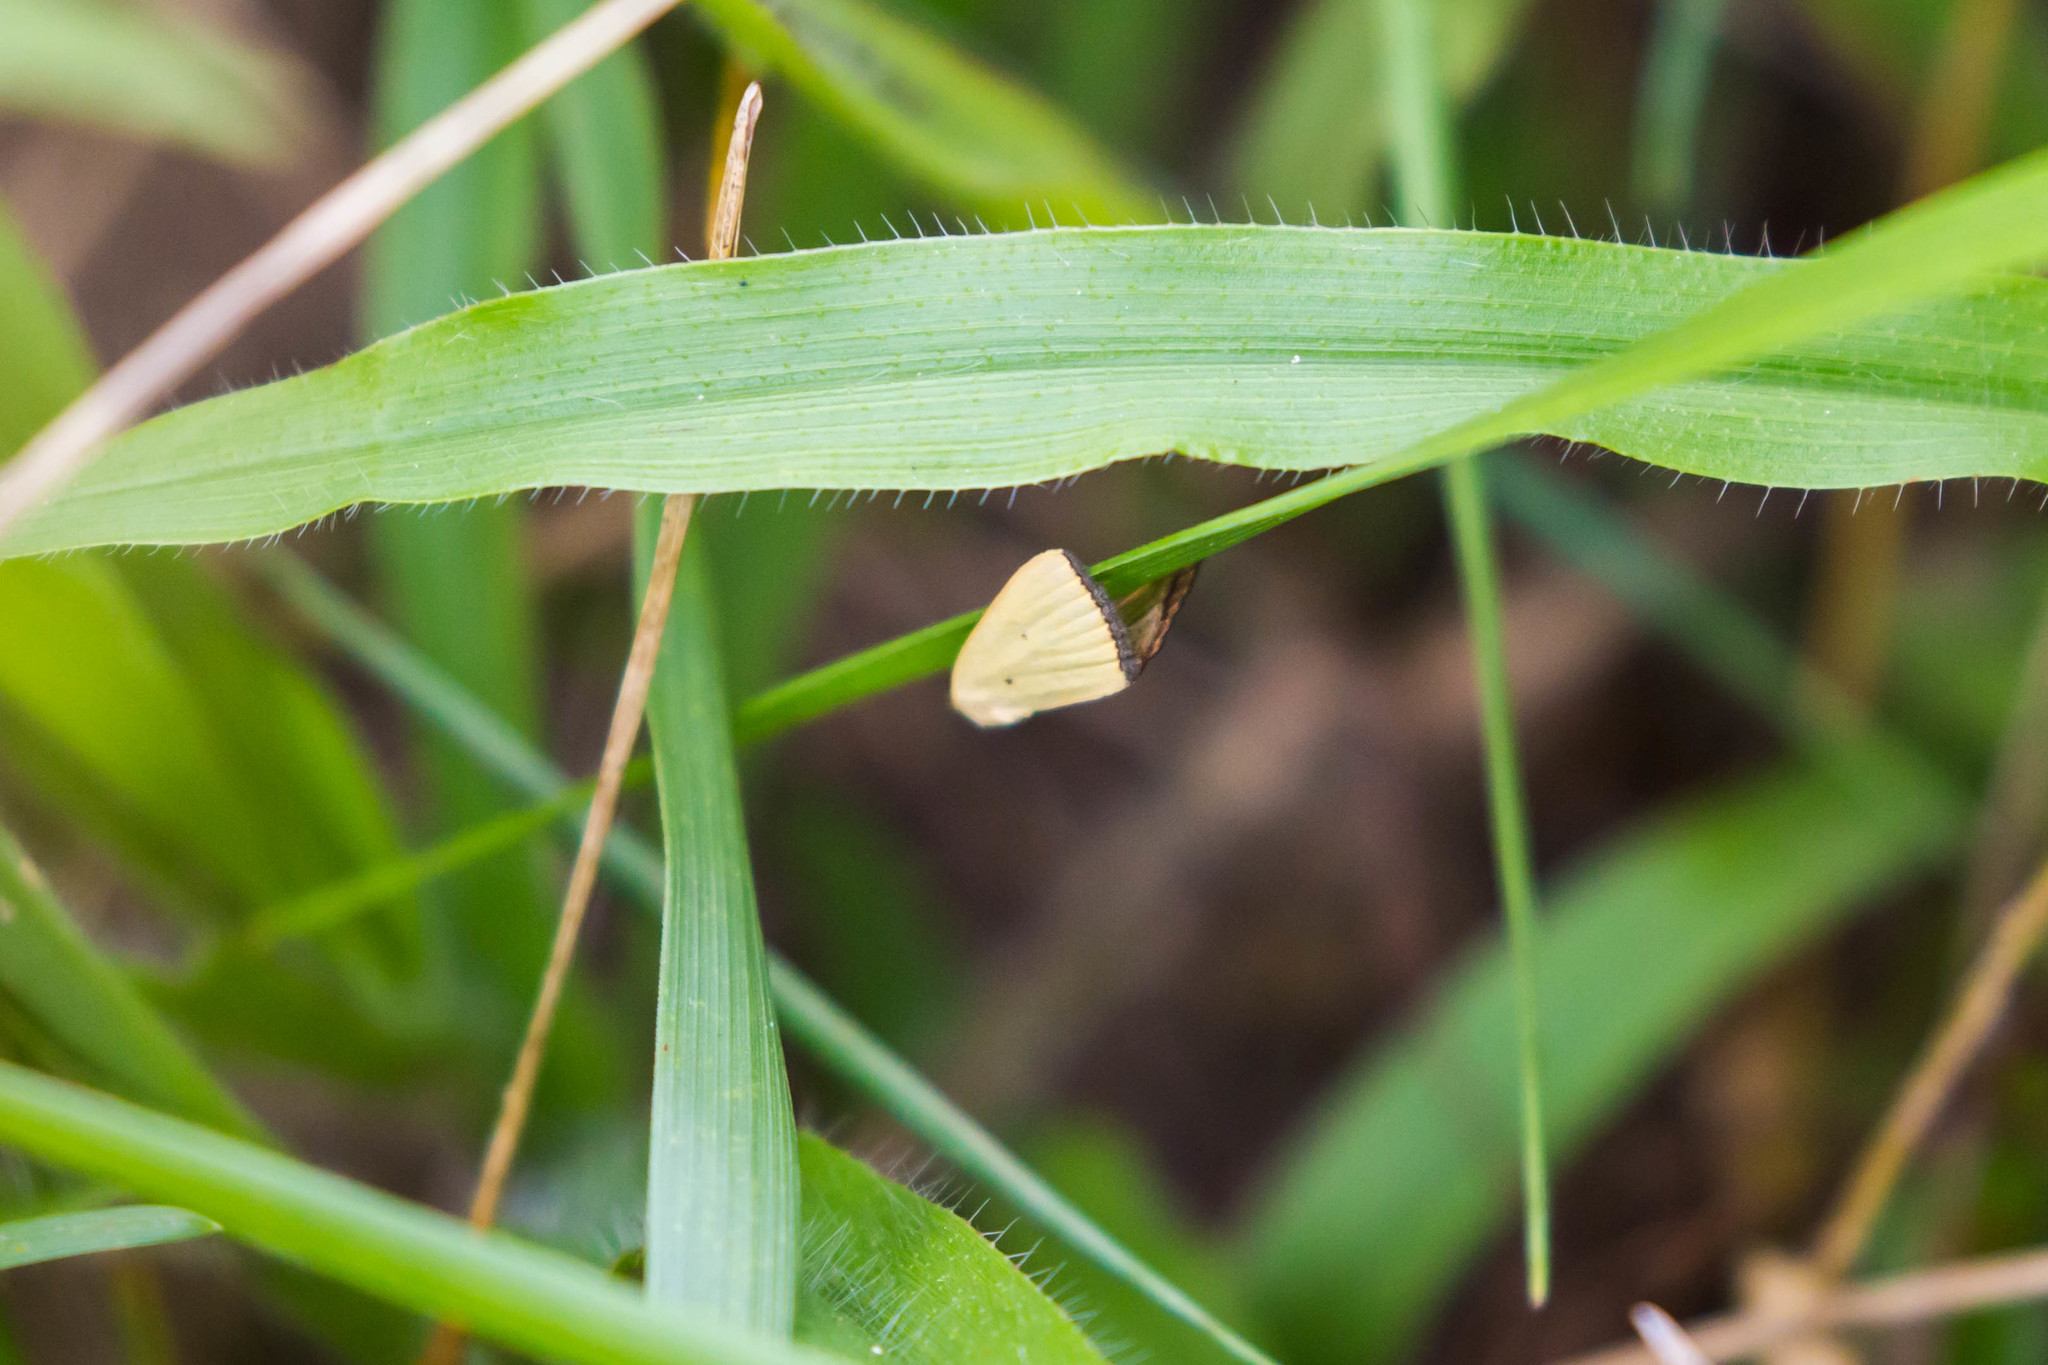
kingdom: Animalia
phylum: Arthropoda
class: Insecta
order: Lepidoptera
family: Noctuidae
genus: Marimatha
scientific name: Marimatha nigrofimbria
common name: Black-bordered lemon moth
